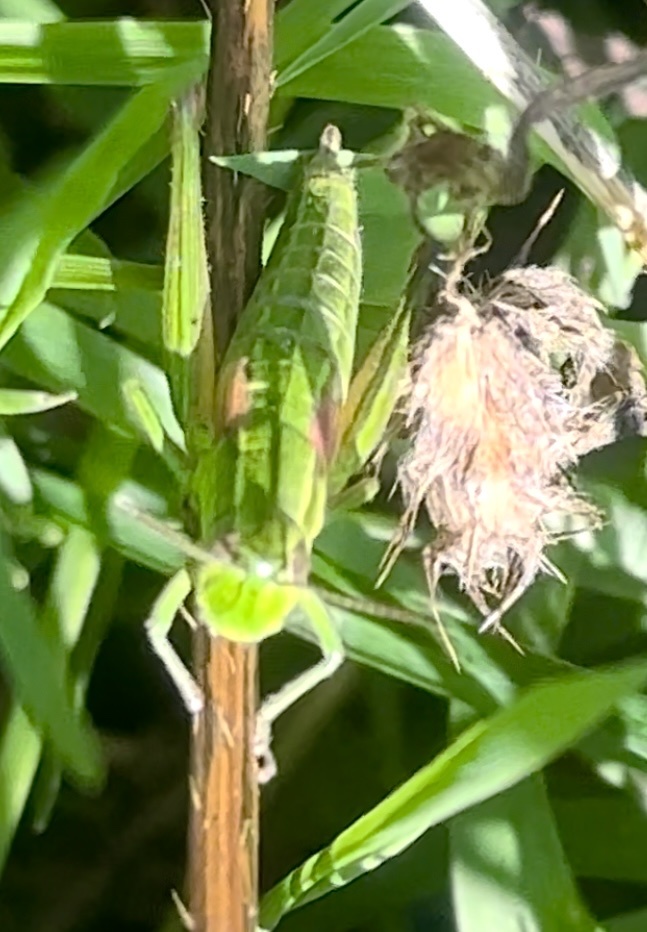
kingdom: Animalia
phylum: Arthropoda
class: Insecta
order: Orthoptera
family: Acrididae
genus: Euthystira
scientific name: Euthystira brachyptera
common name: Small gold grasshopper
